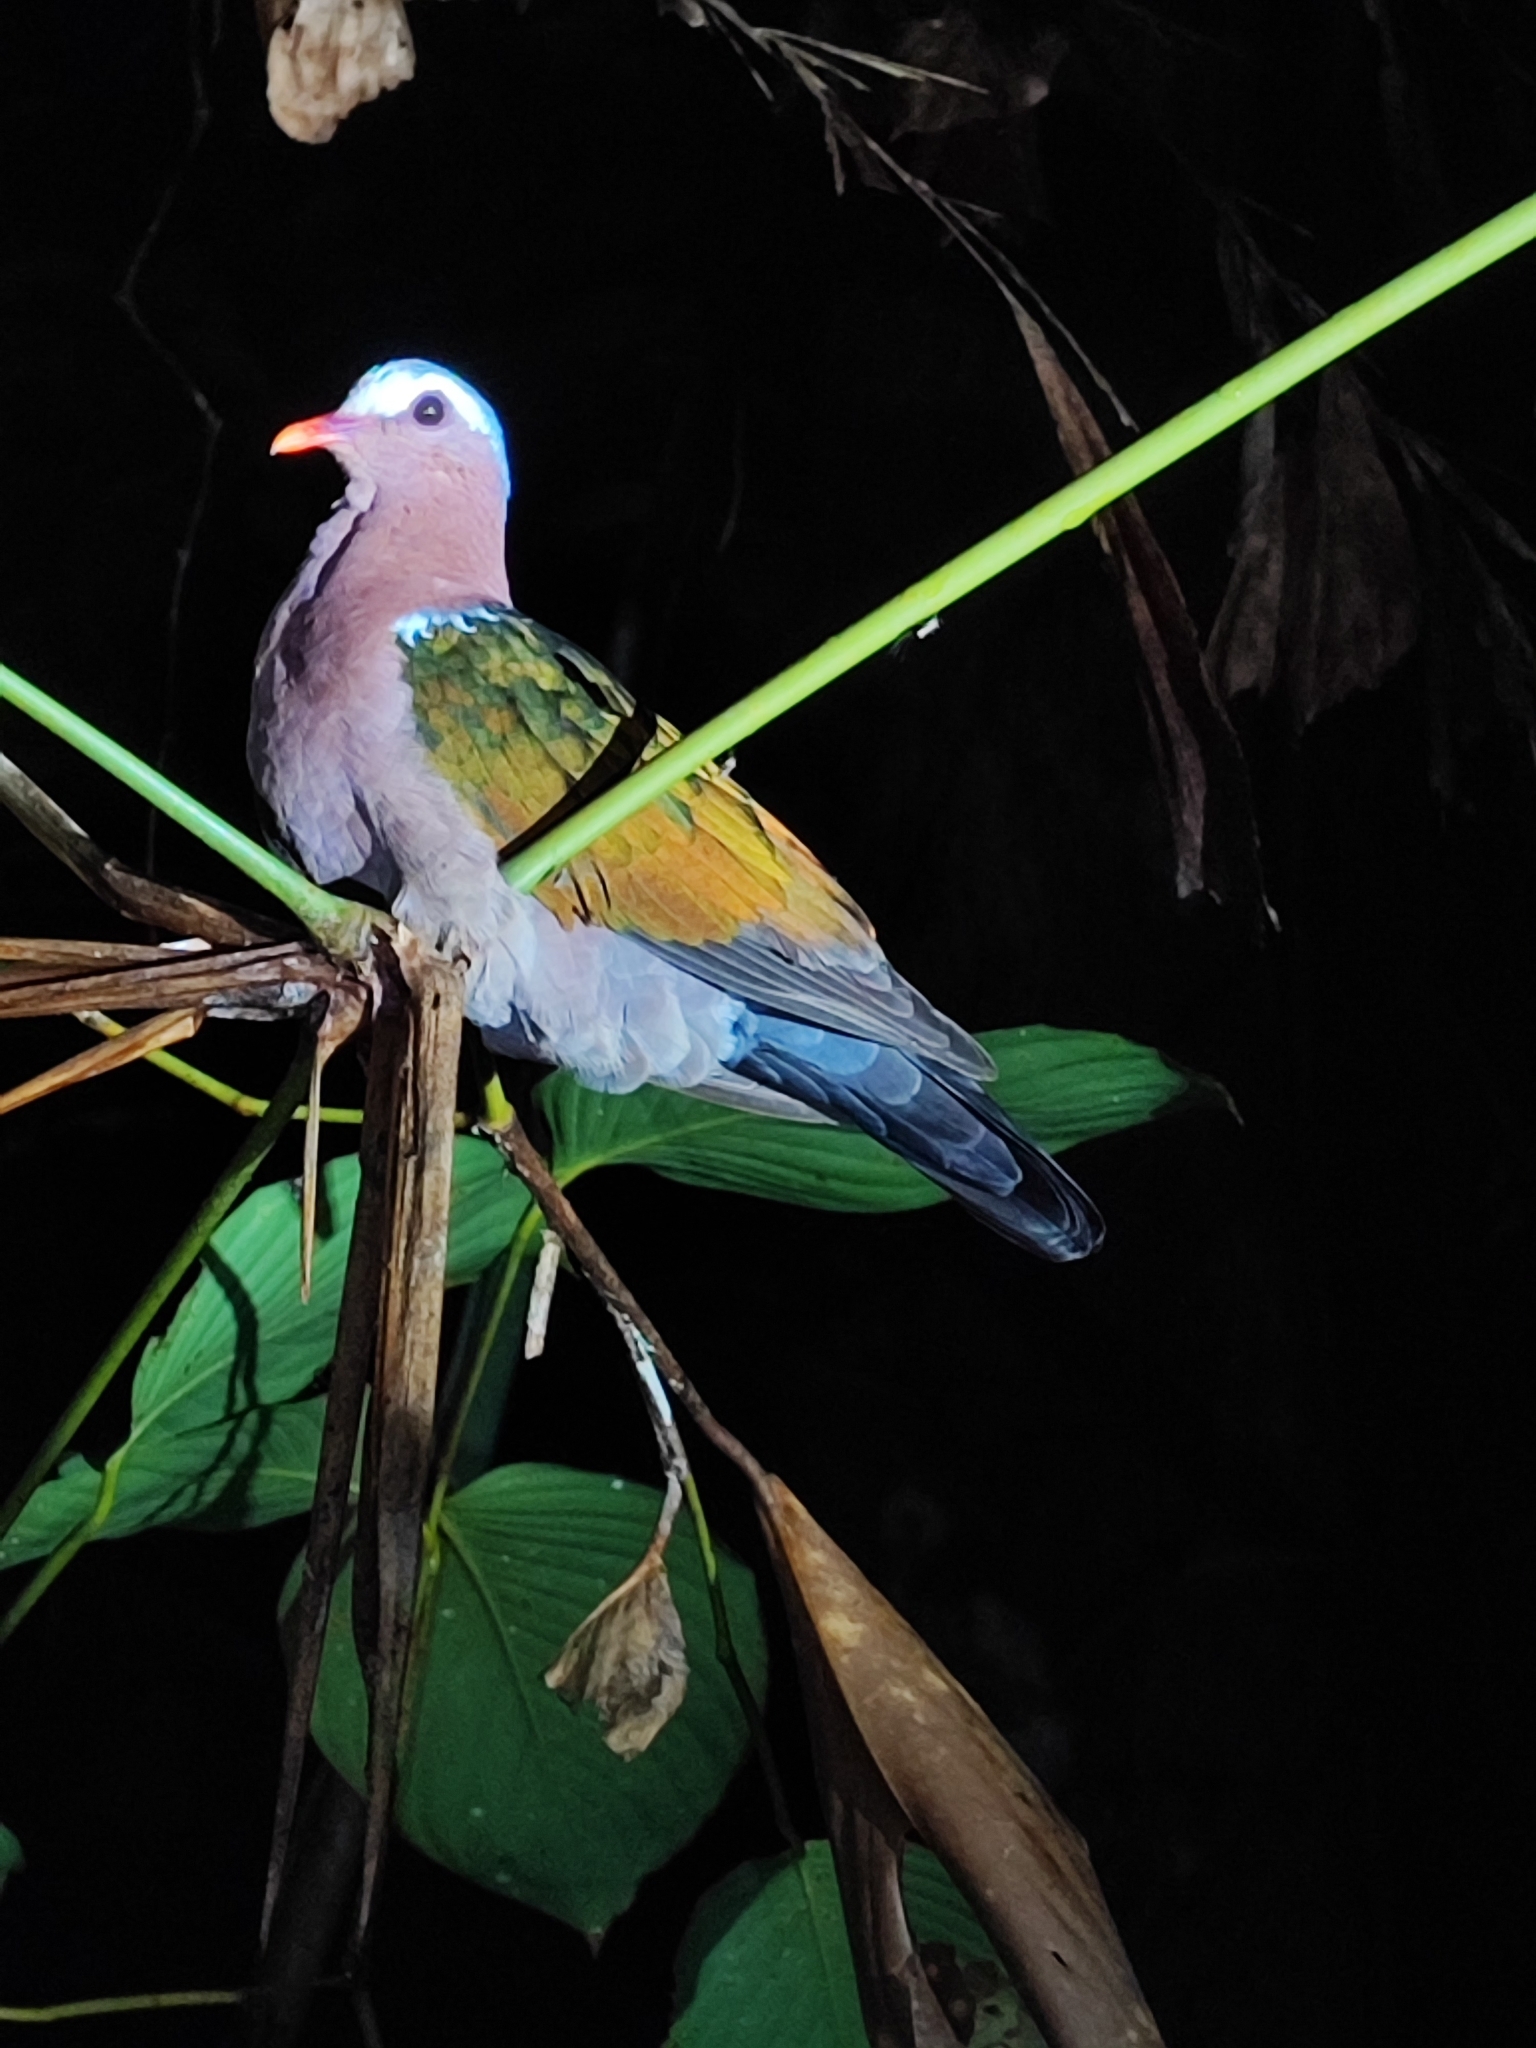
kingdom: Animalia
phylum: Chordata
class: Aves
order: Columbiformes
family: Columbidae
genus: Chalcophaps
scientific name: Chalcophaps indica
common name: Common emerald dove
